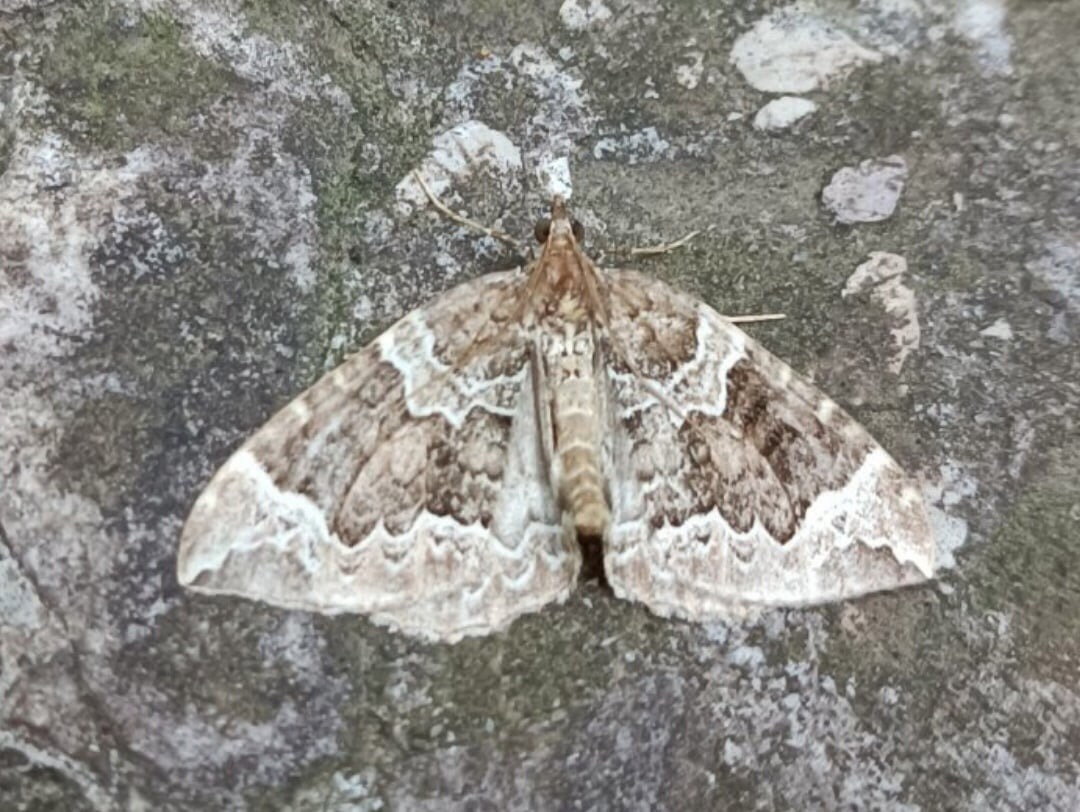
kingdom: Animalia
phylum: Arthropoda
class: Insecta
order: Lepidoptera
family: Geometridae
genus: Eulithis
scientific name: Eulithis prunata
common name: Phoenix
